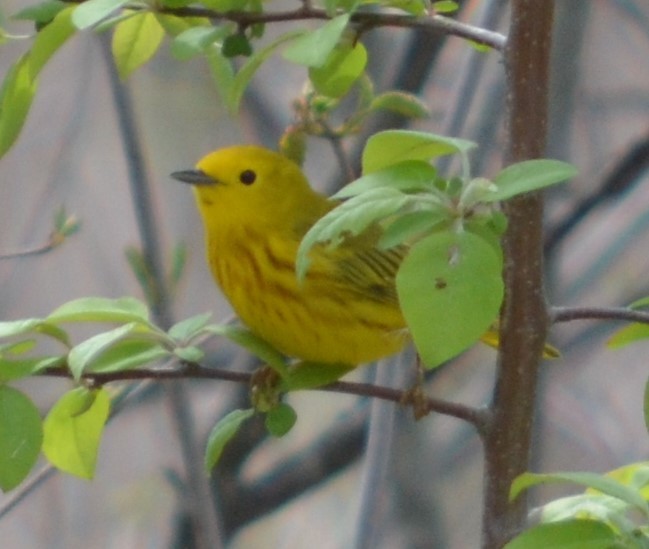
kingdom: Animalia
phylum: Chordata
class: Aves
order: Passeriformes
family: Parulidae
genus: Setophaga
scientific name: Setophaga petechia
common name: Yellow warbler
